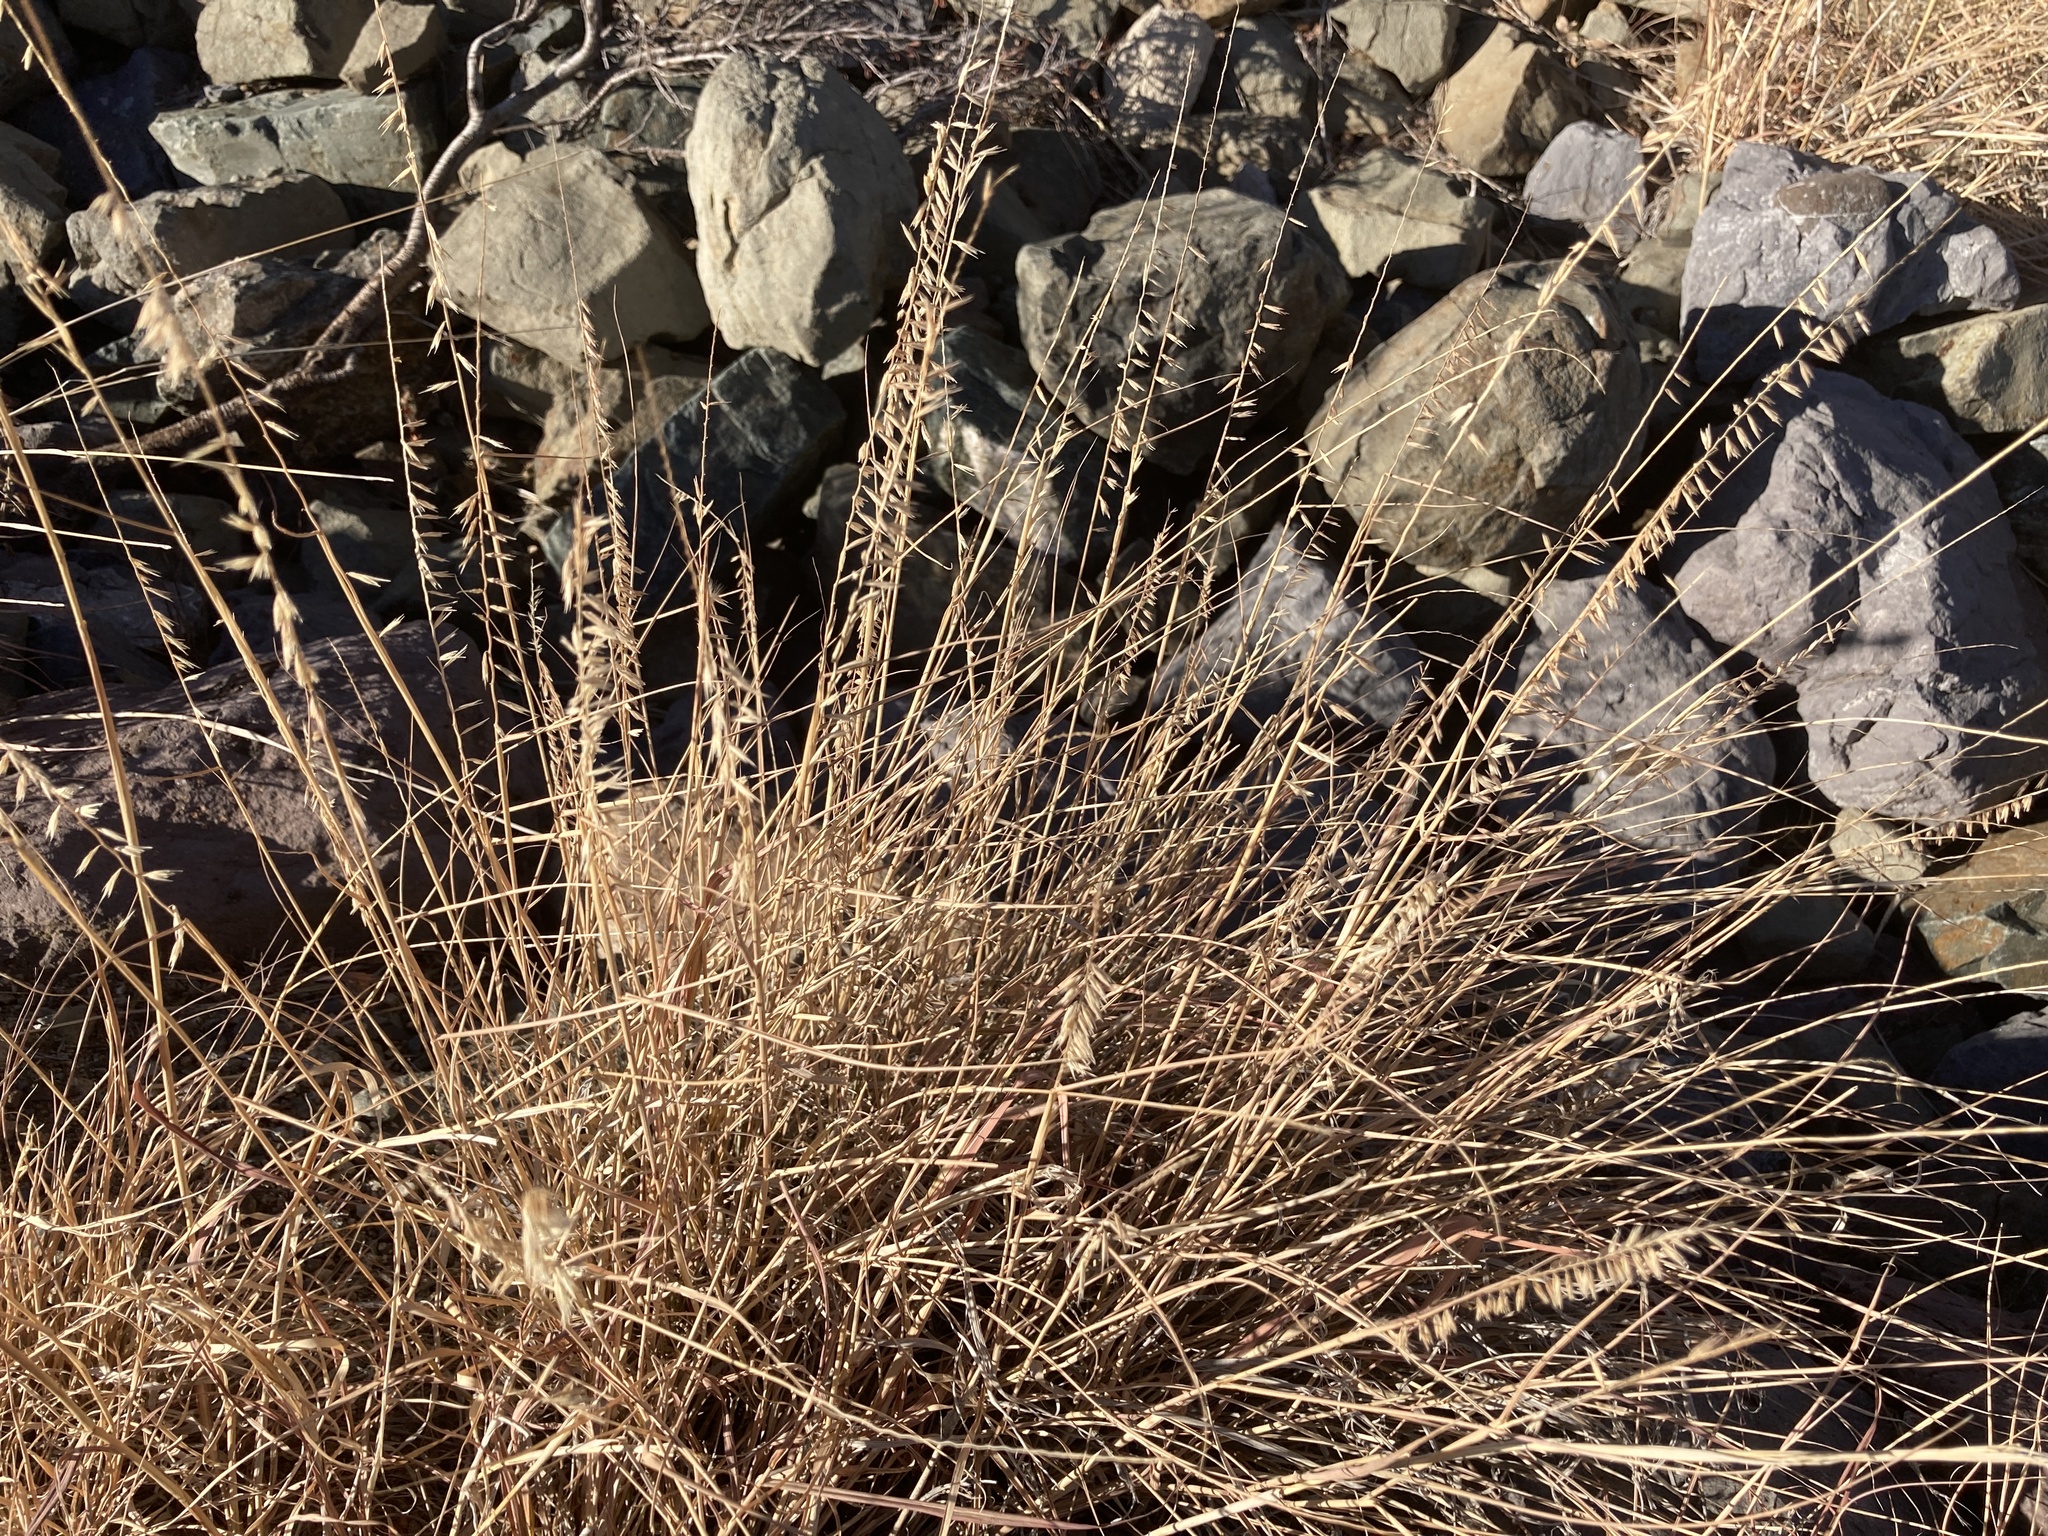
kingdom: Plantae
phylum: Tracheophyta
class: Liliopsida
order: Poales
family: Poaceae
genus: Bouteloua
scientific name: Bouteloua curtipendula
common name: Side-oats grama
